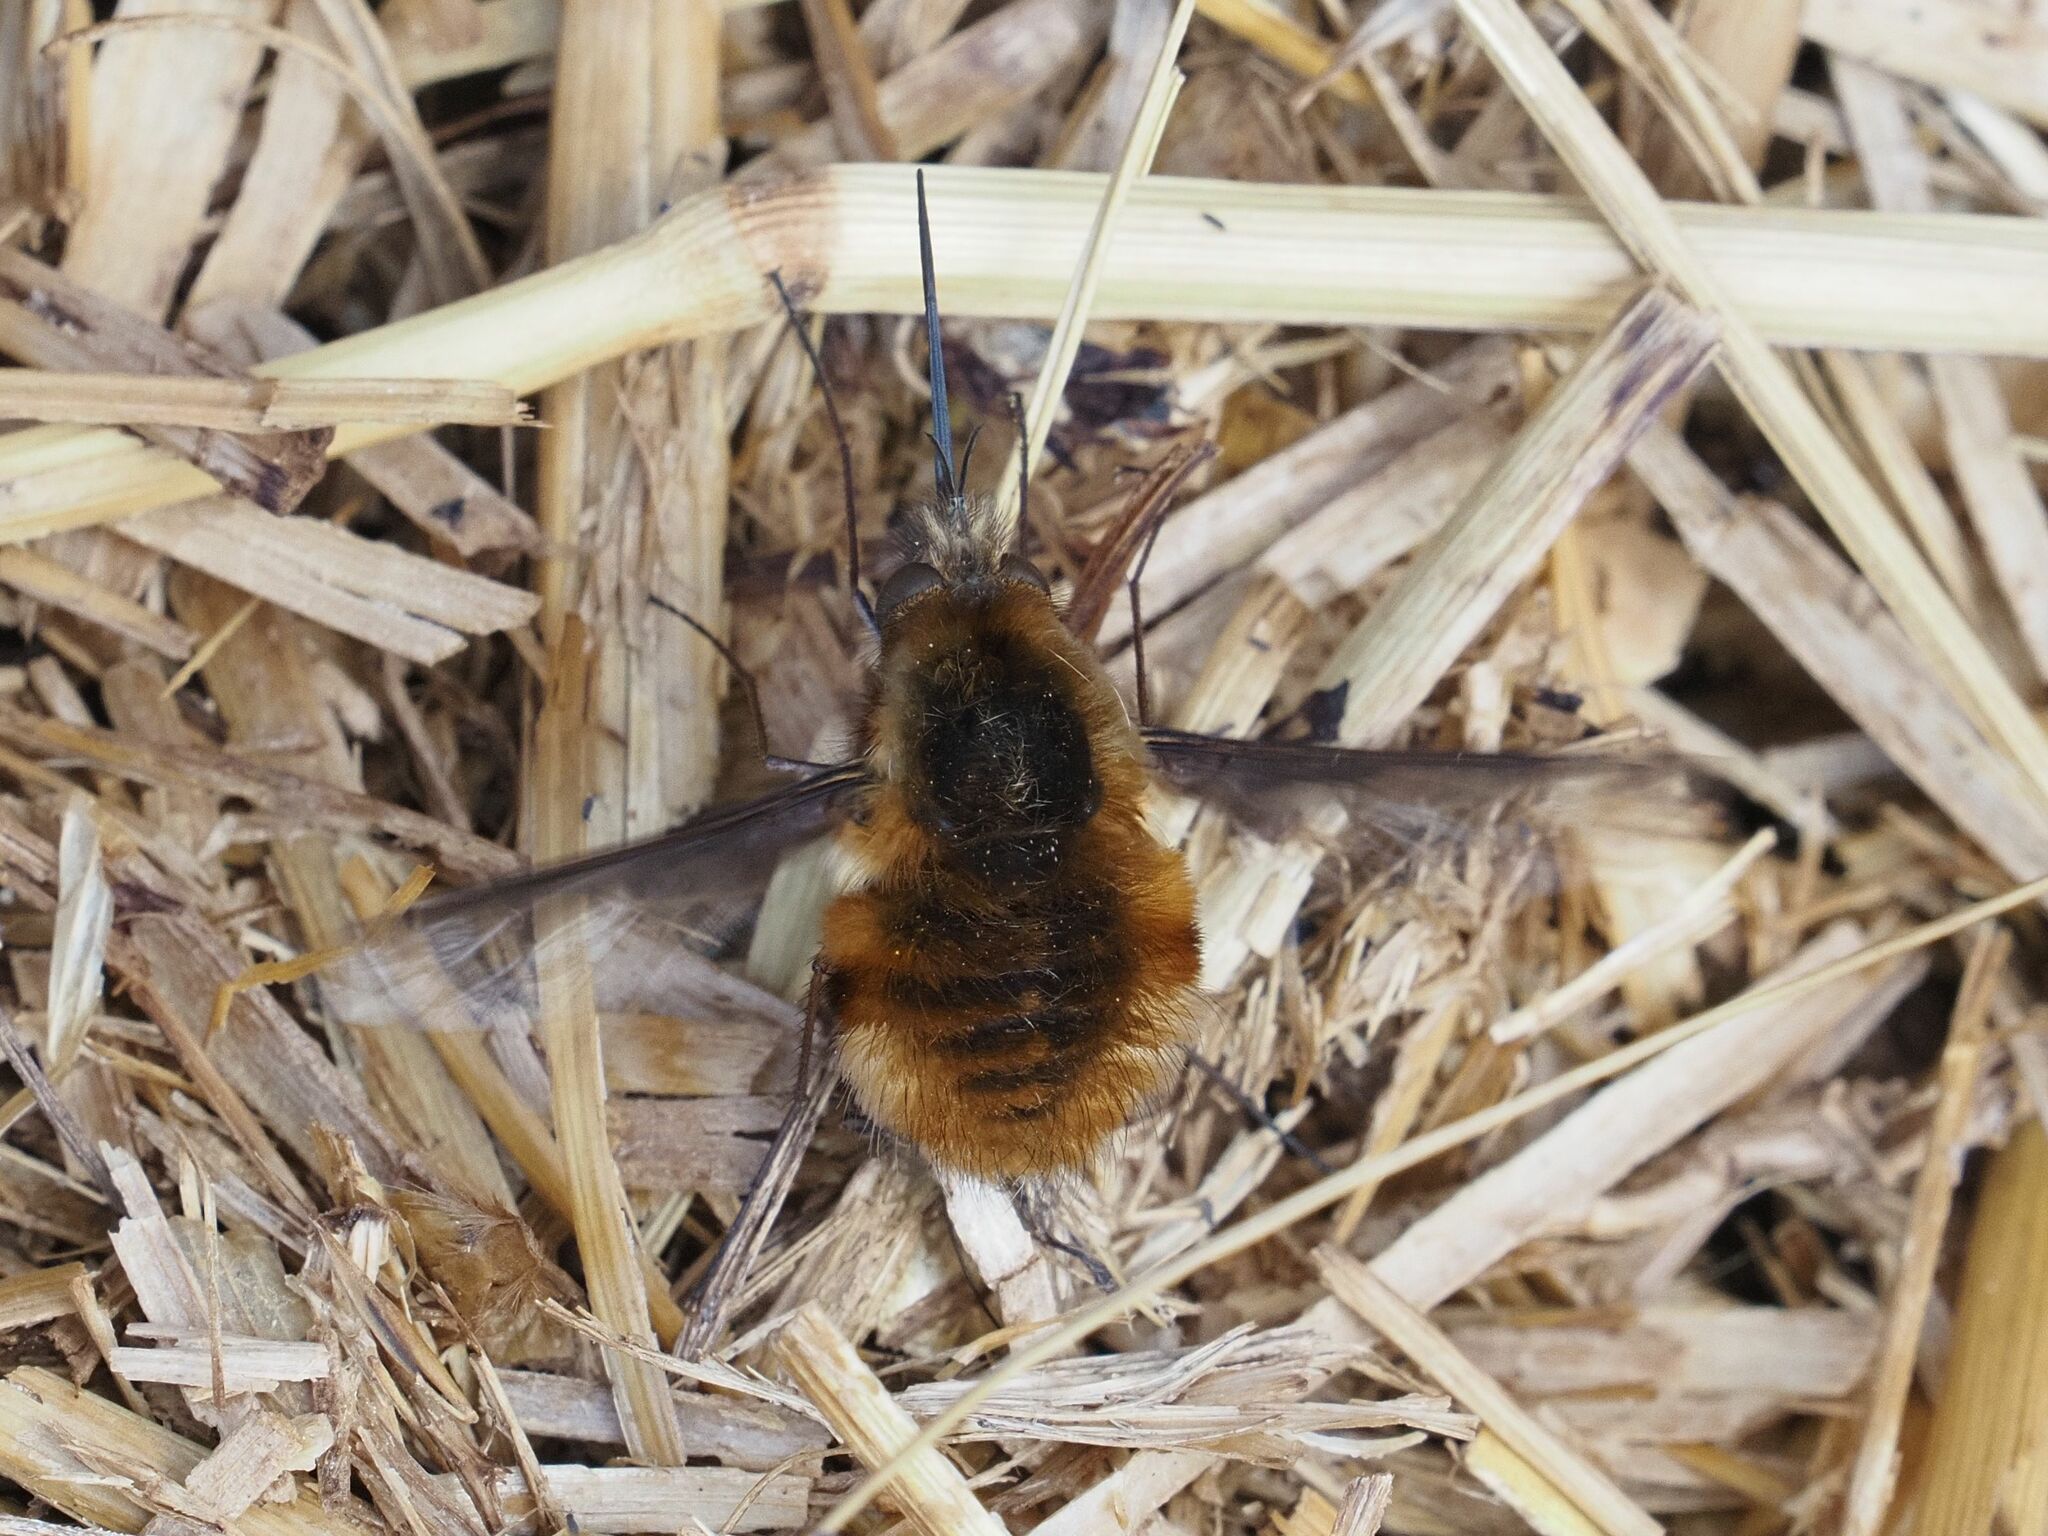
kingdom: Animalia
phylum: Arthropoda
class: Insecta
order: Diptera
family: Bombyliidae
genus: Bombylius
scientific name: Bombylius major
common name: Bee fly
